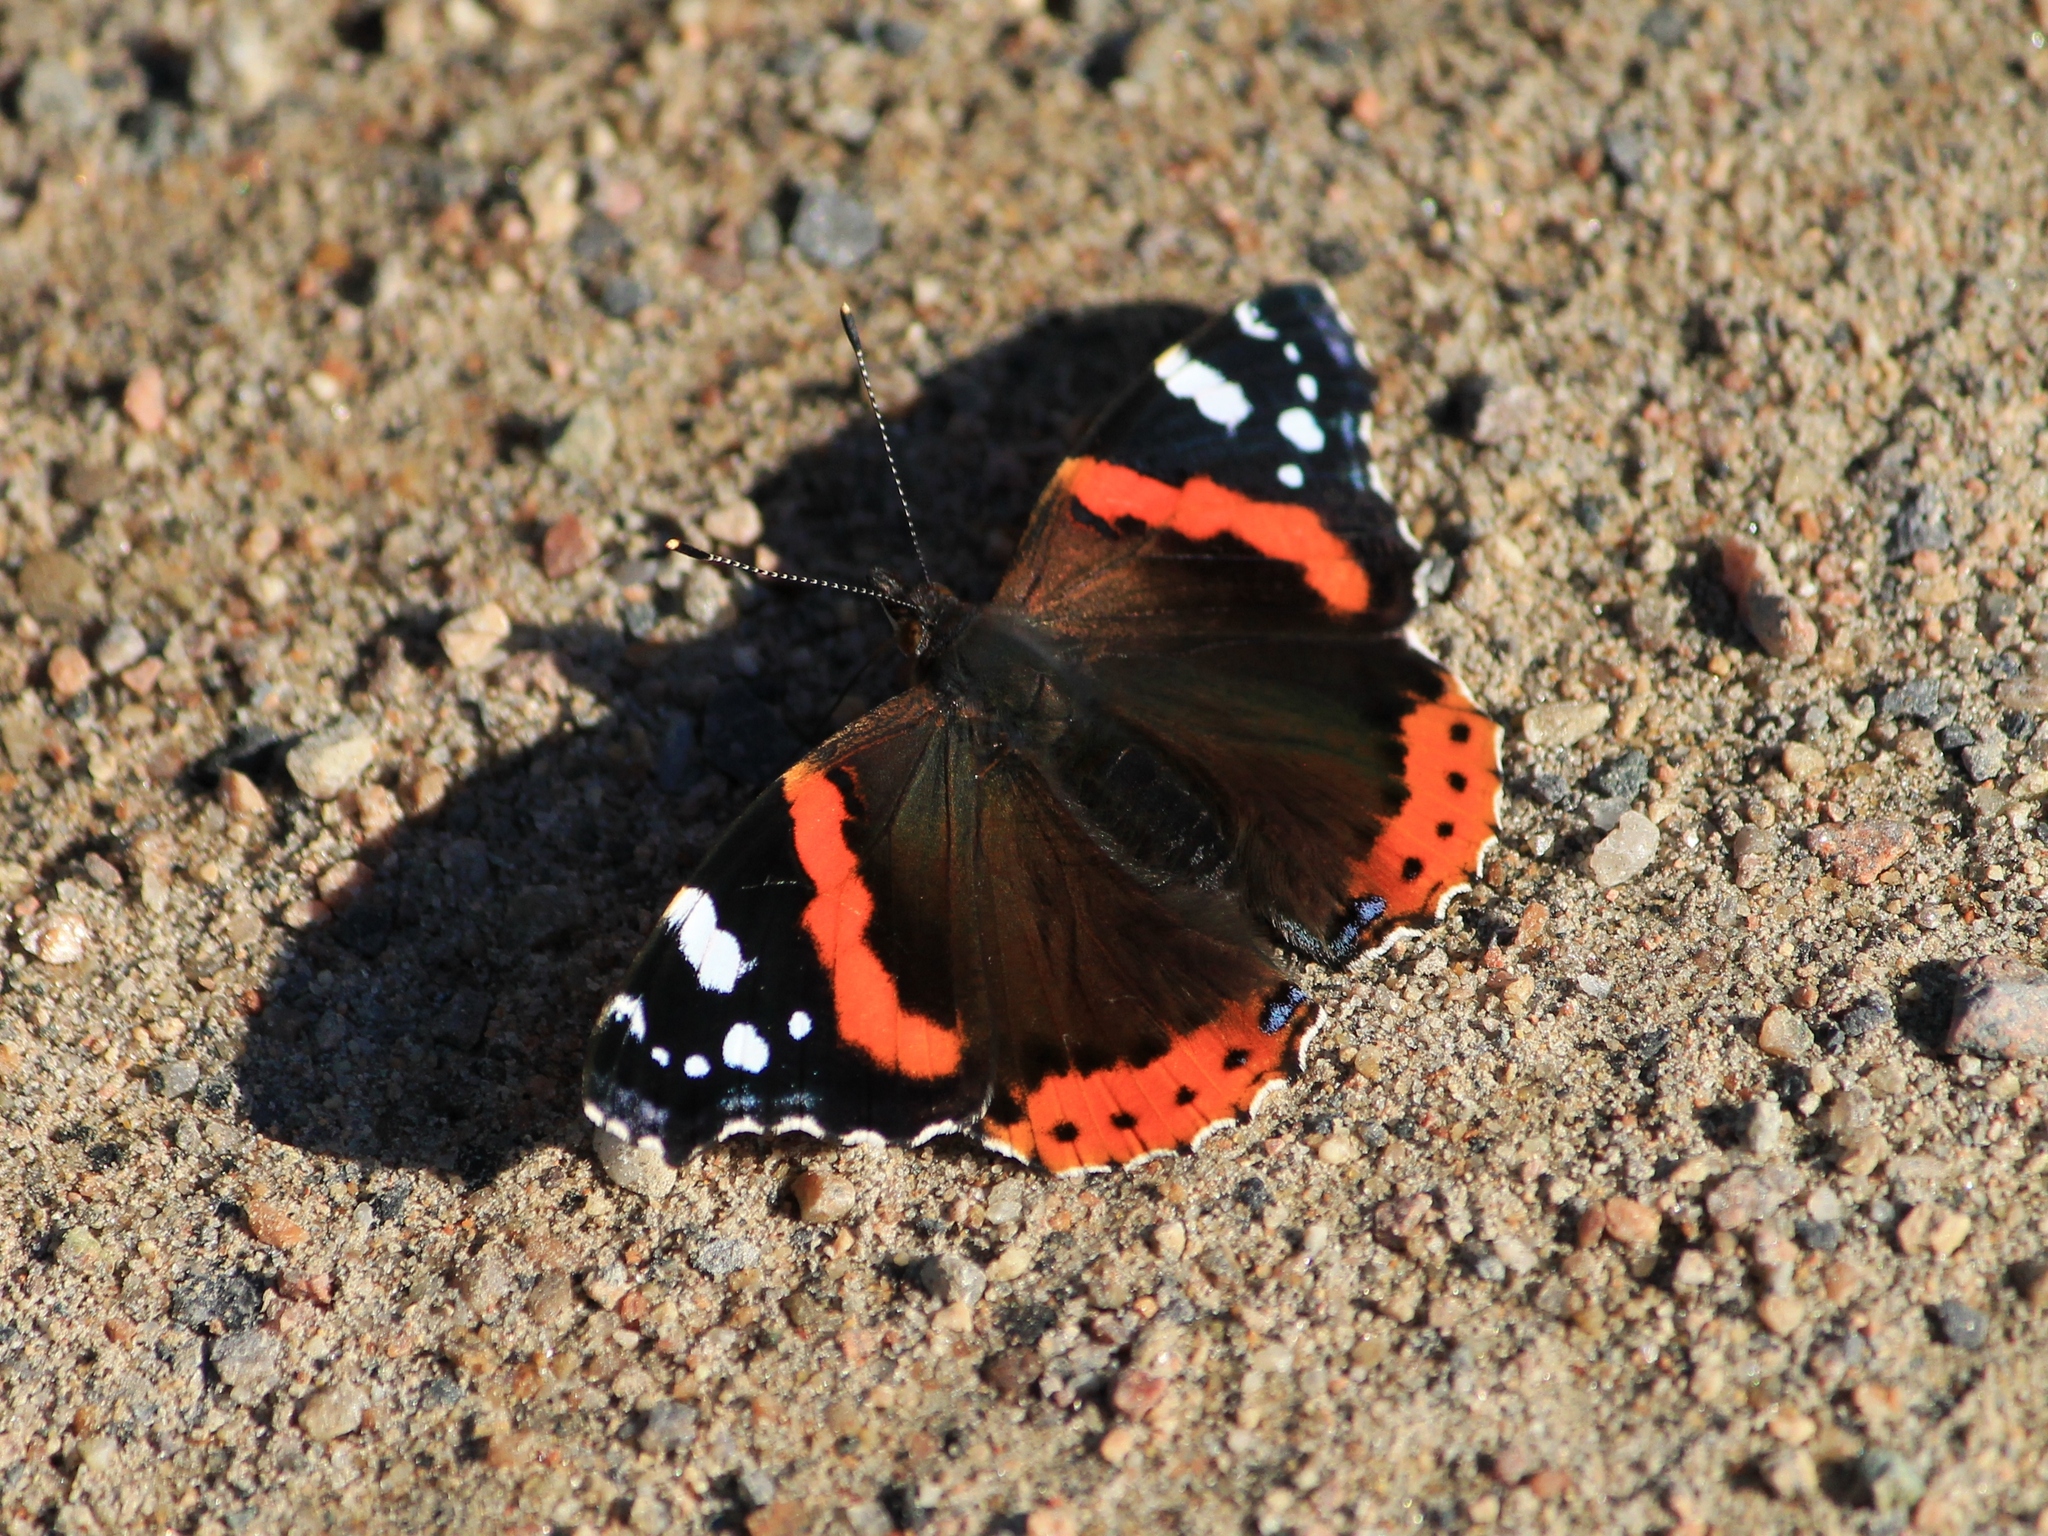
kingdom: Animalia
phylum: Arthropoda
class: Insecta
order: Lepidoptera
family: Nymphalidae
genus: Vanessa
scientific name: Vanessa atalanta
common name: Red admiral
